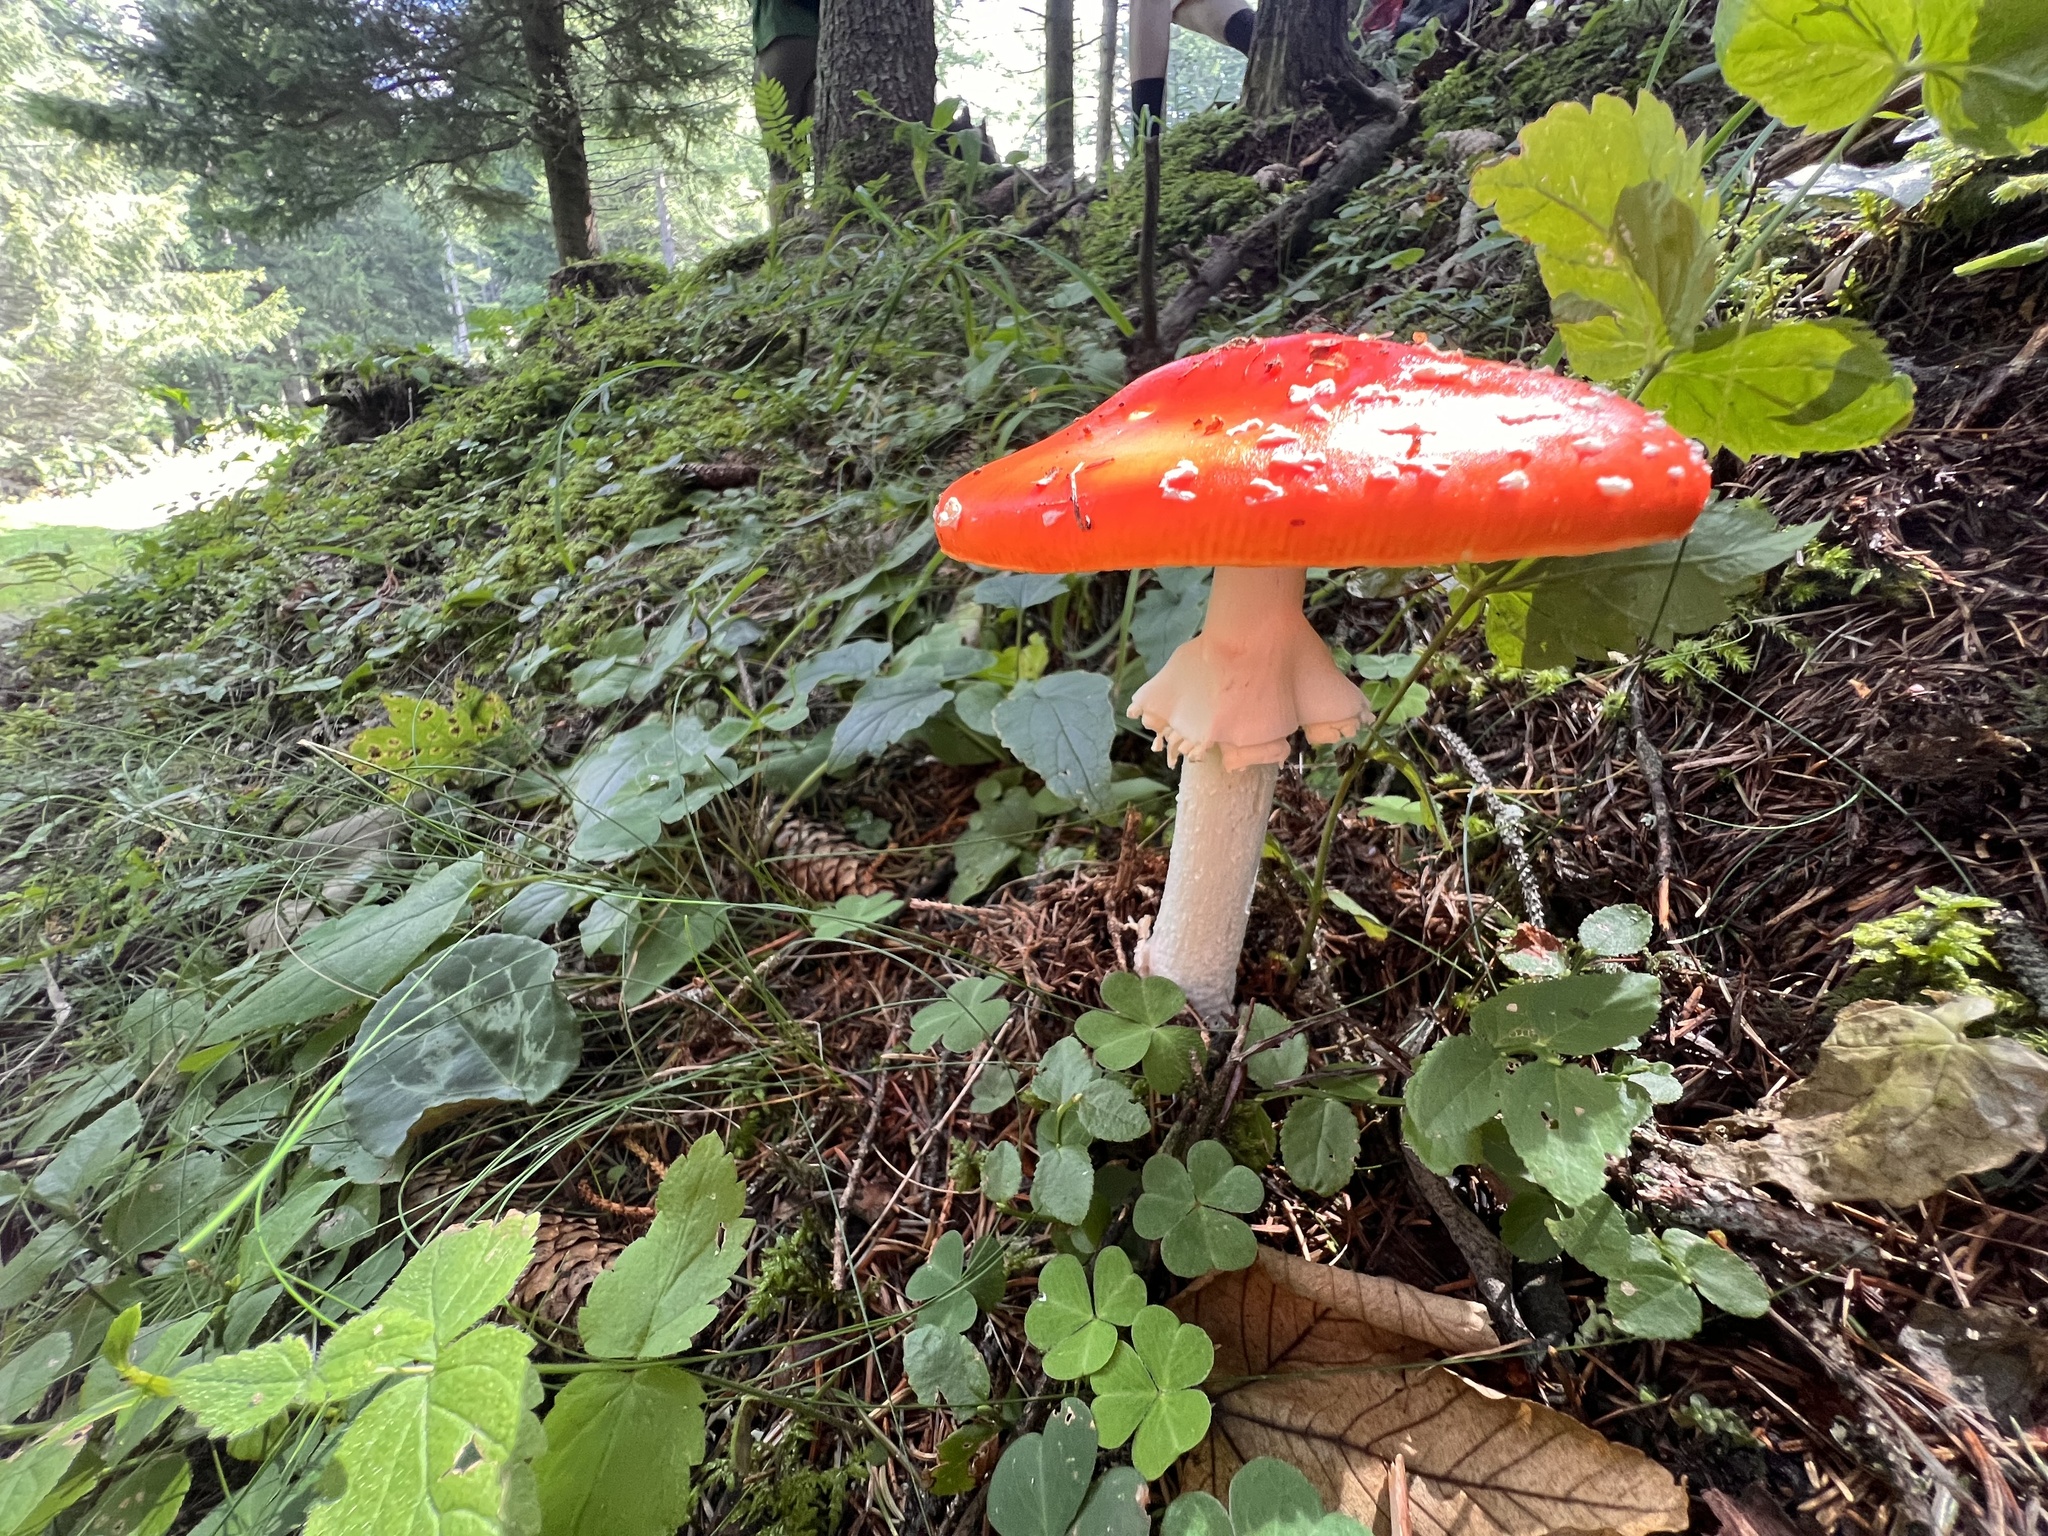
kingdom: Fungi
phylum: Basidiomycota
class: Agaricomycetes
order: Agaricales
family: Amanitaceae
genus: Amanita
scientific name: Amanita muscaria
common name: Fly agaric
